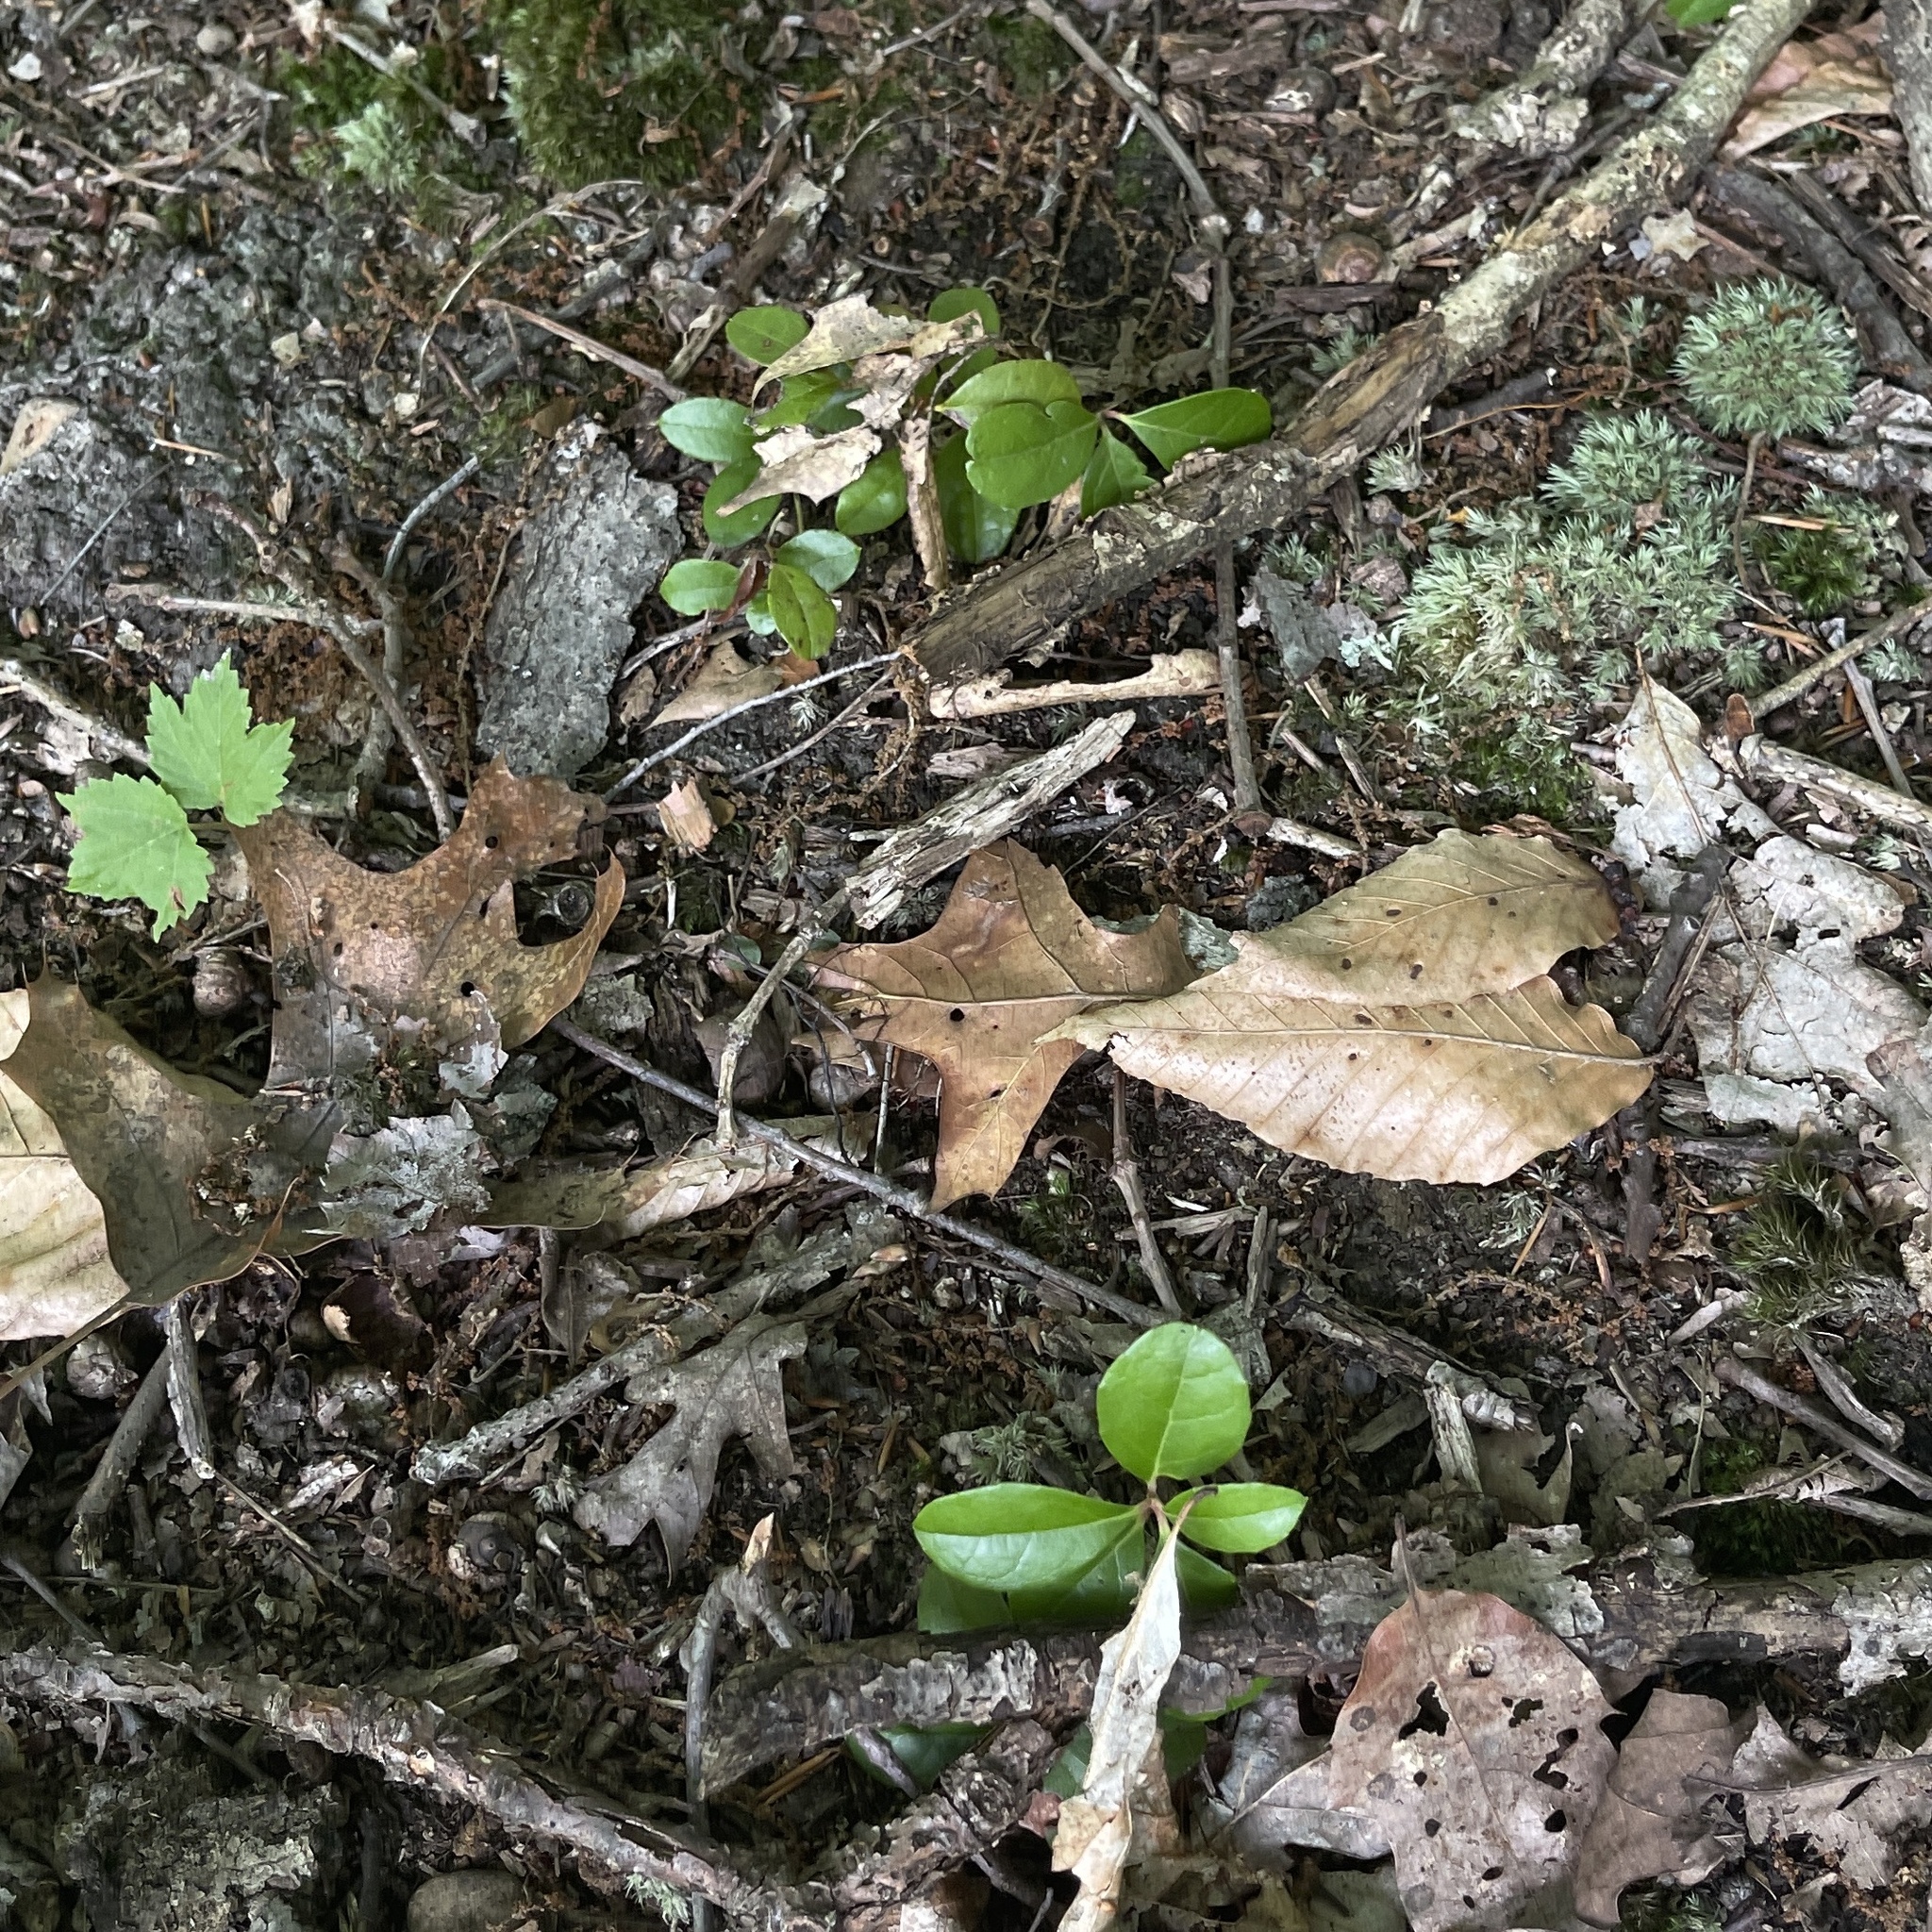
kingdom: Plantae
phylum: Tracheophyta
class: Magnoliopsida
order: Ericales
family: Ericaceae
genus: Gaultheria
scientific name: Gaultheria procumbens
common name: Checkerberry
